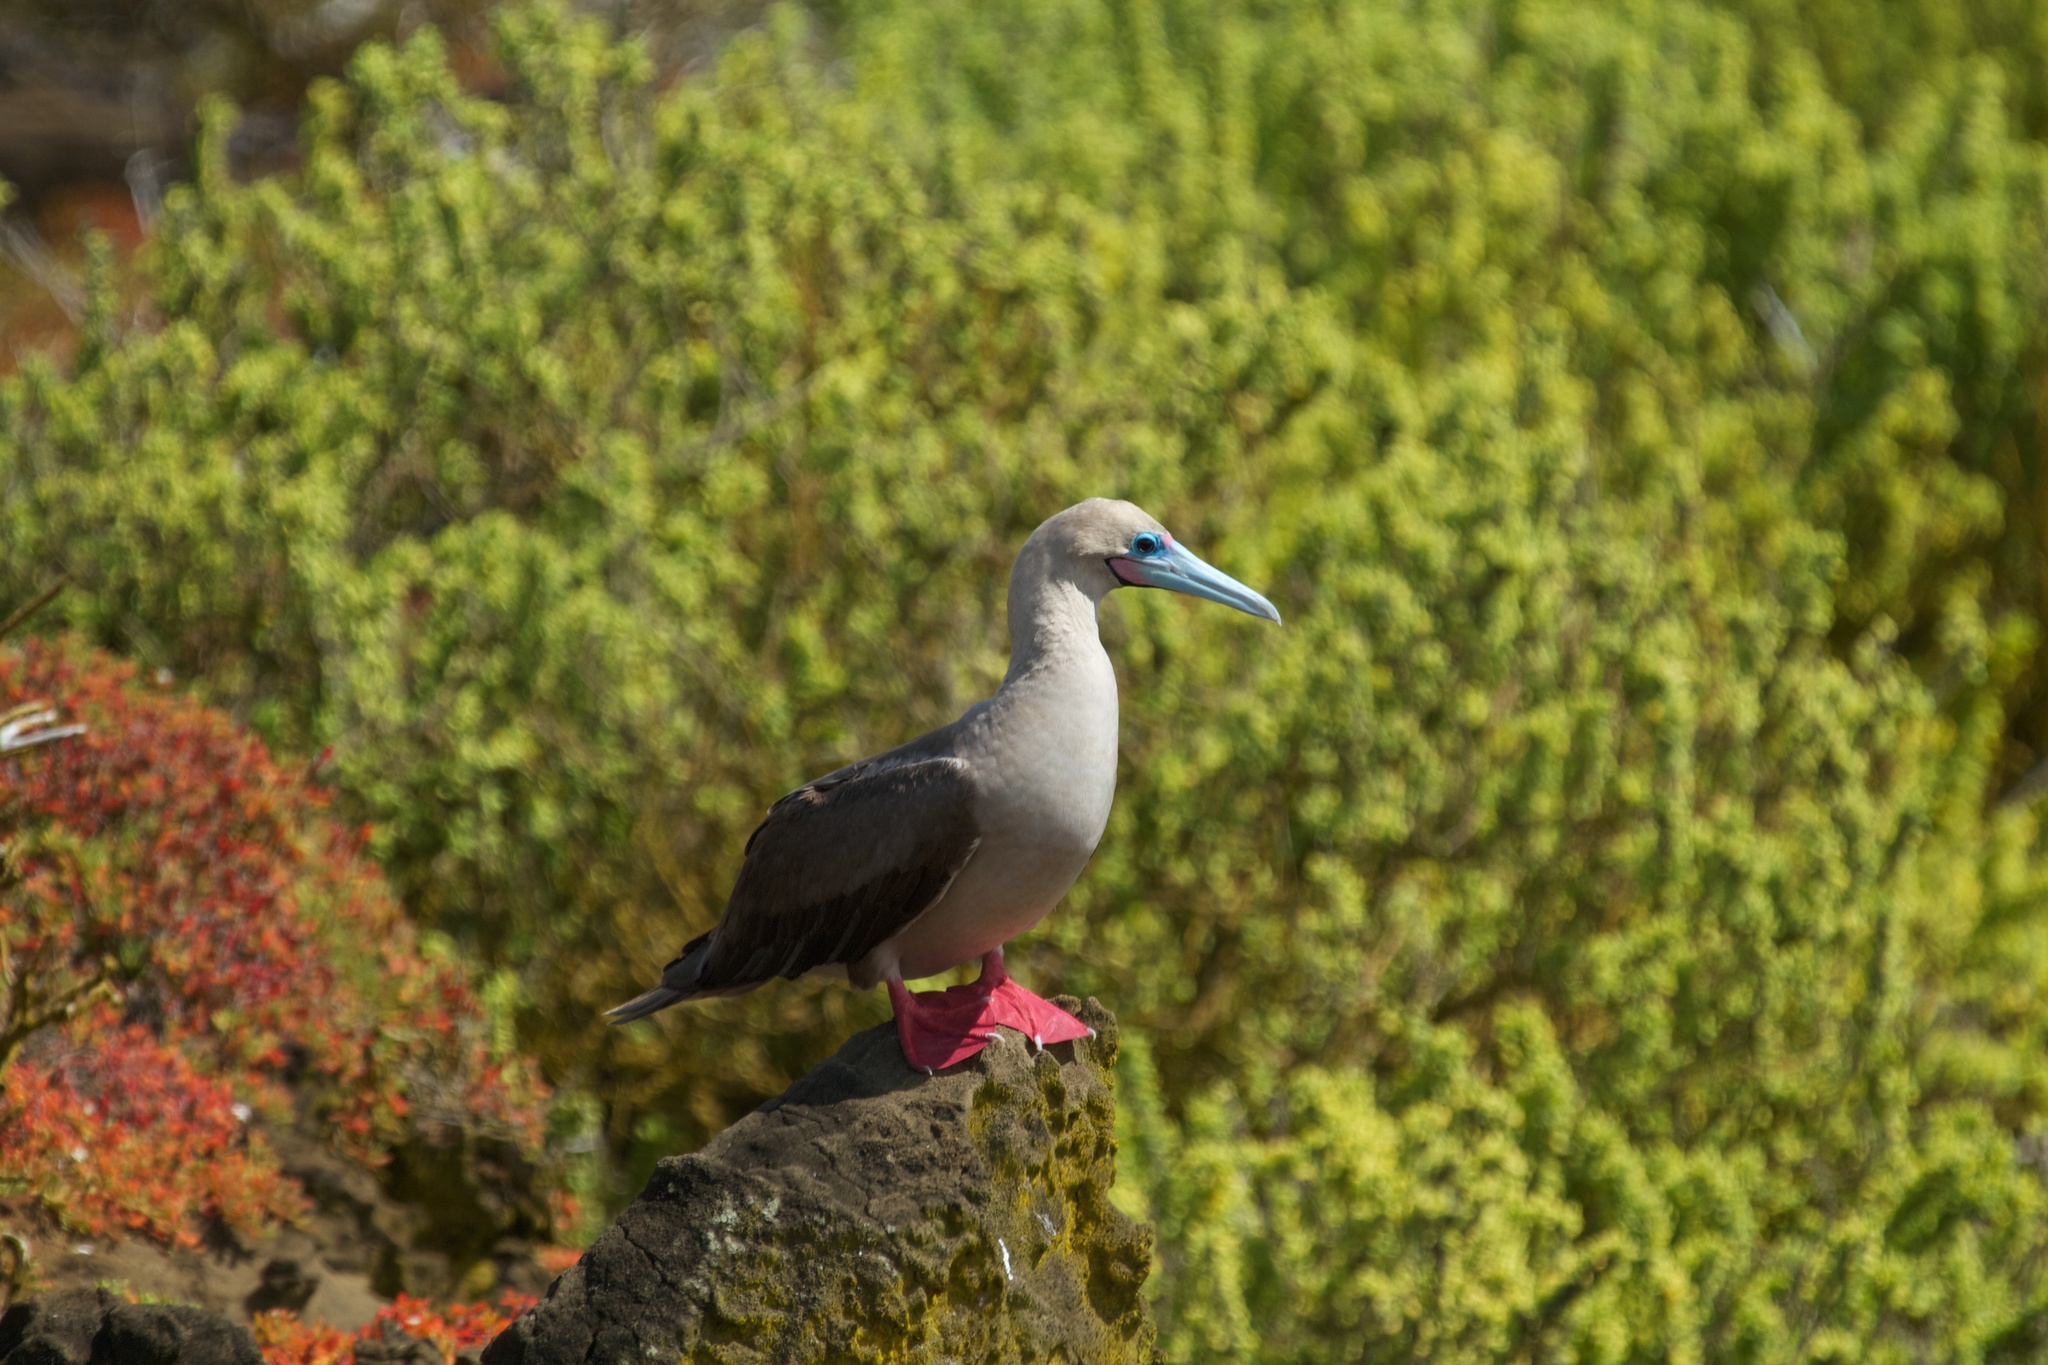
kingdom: Animalia
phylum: Chordata
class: Aves
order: Suliformes
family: Sulidae
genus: Sula
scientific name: Sula sula
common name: Red-footed booby
